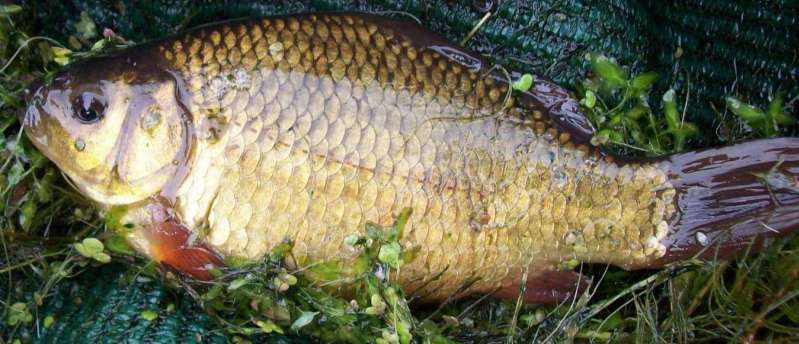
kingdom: Animalia
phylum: Chordata
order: Cypriniformes
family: Cyprinidae
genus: Carassius
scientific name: Carassius carassius
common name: Crucian carp
